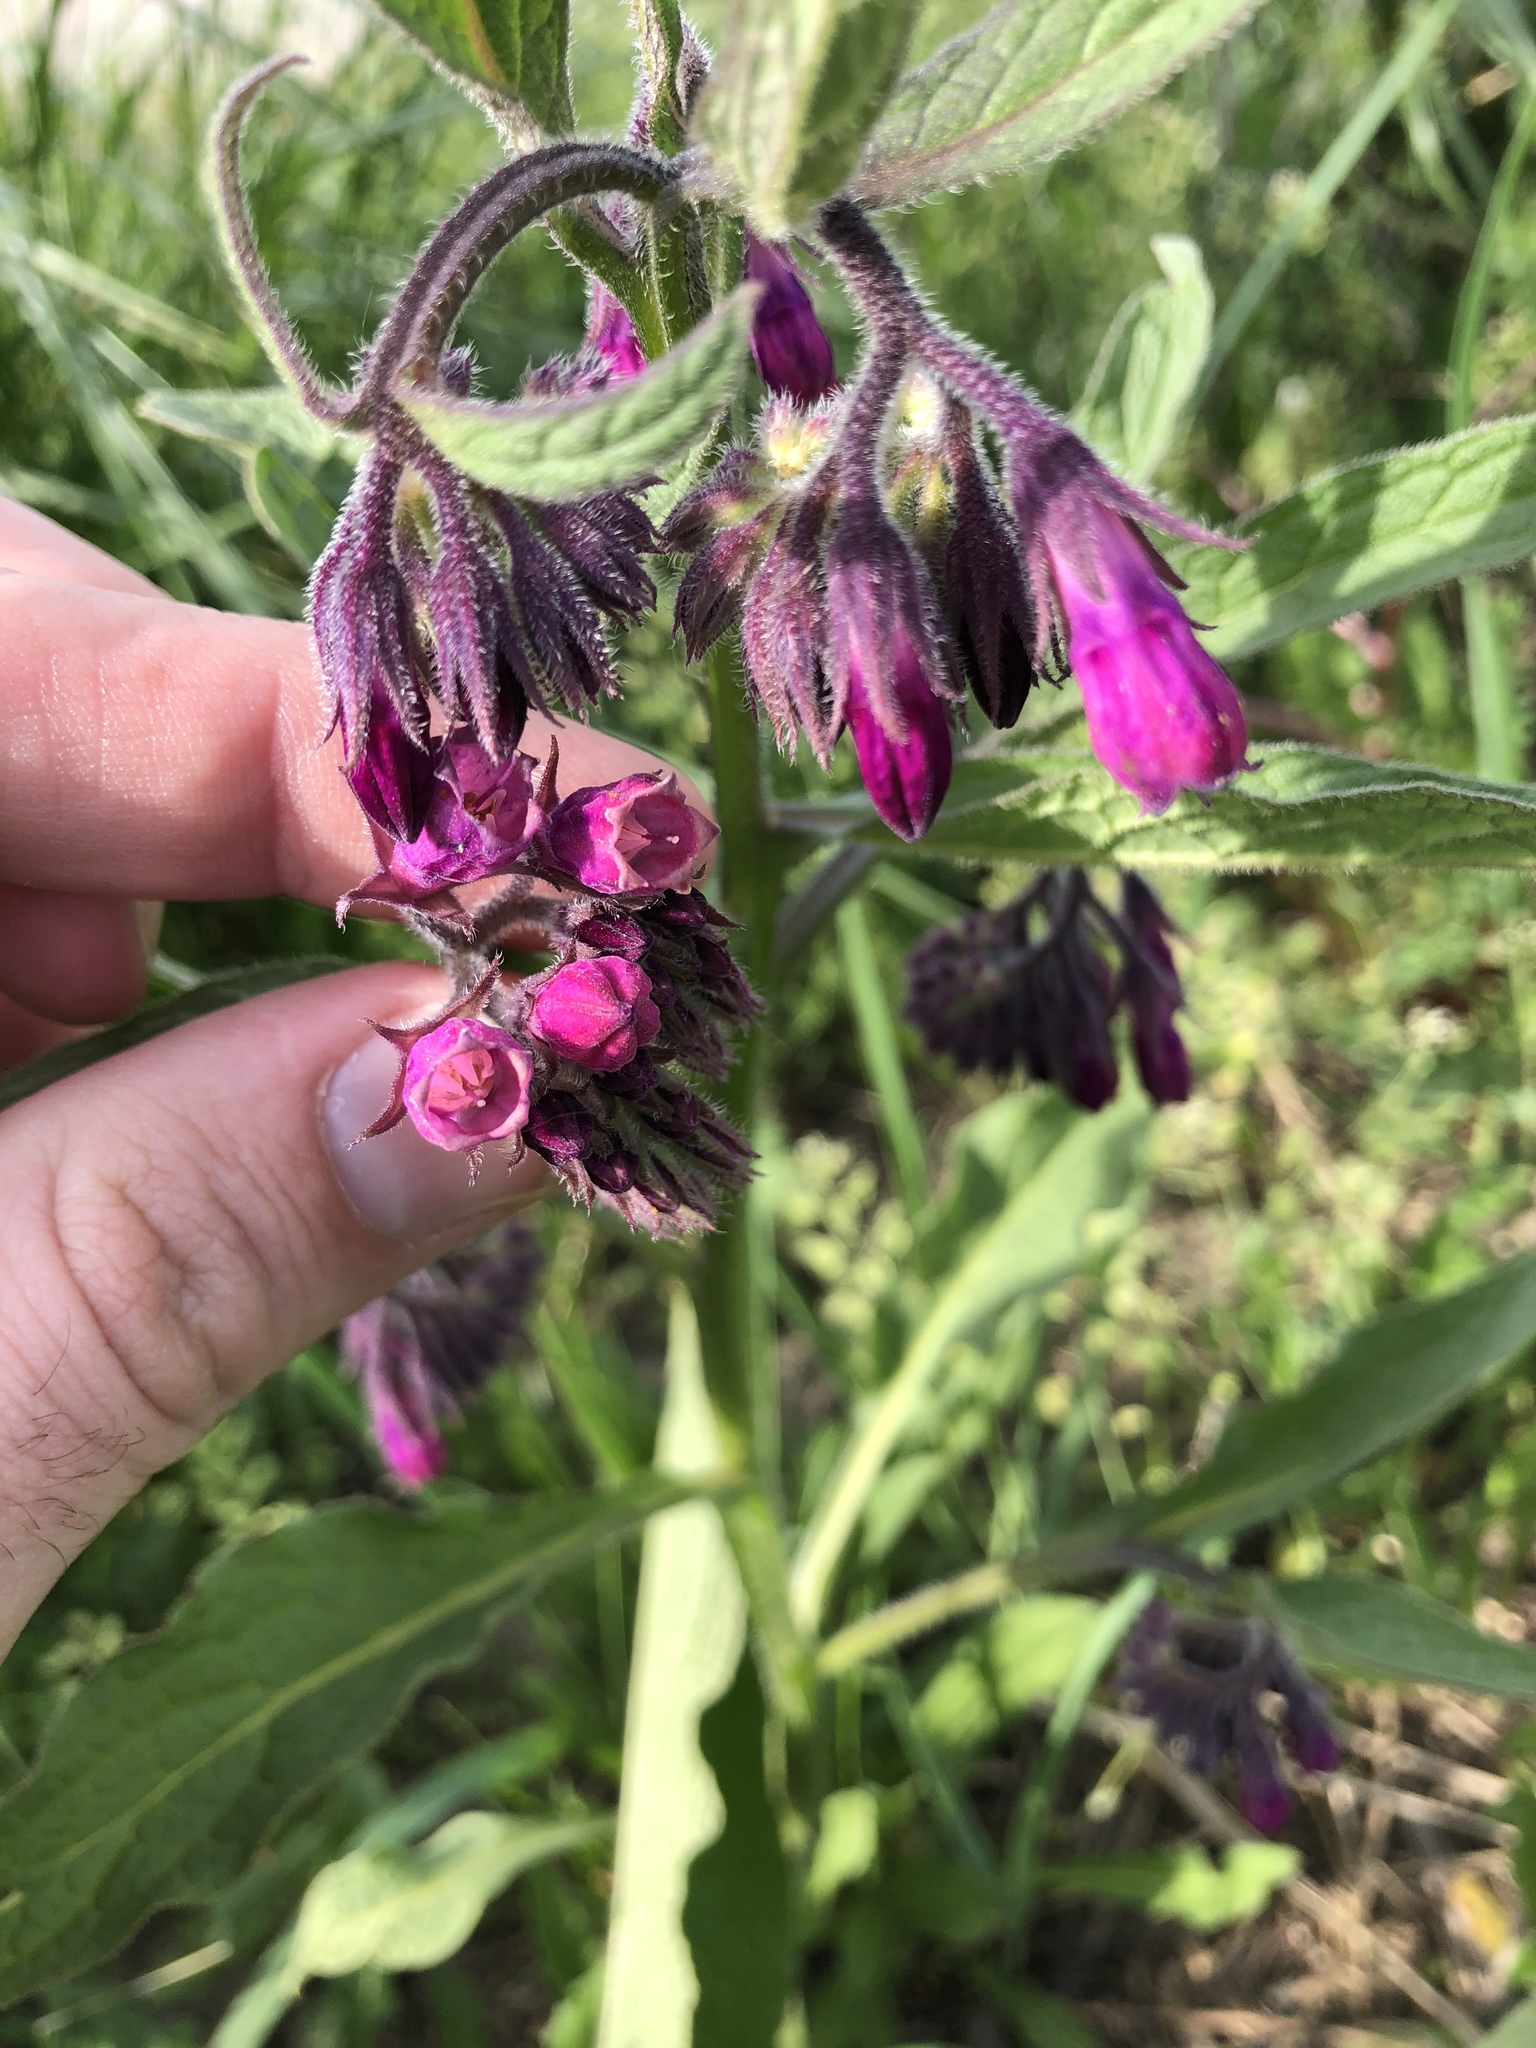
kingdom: Plantae
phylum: Tracheophyta
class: Magnoliopsida
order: Boraginales
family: Boraginaceae
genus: Symphytum
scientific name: Symphytum officinale
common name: Common comfrey
